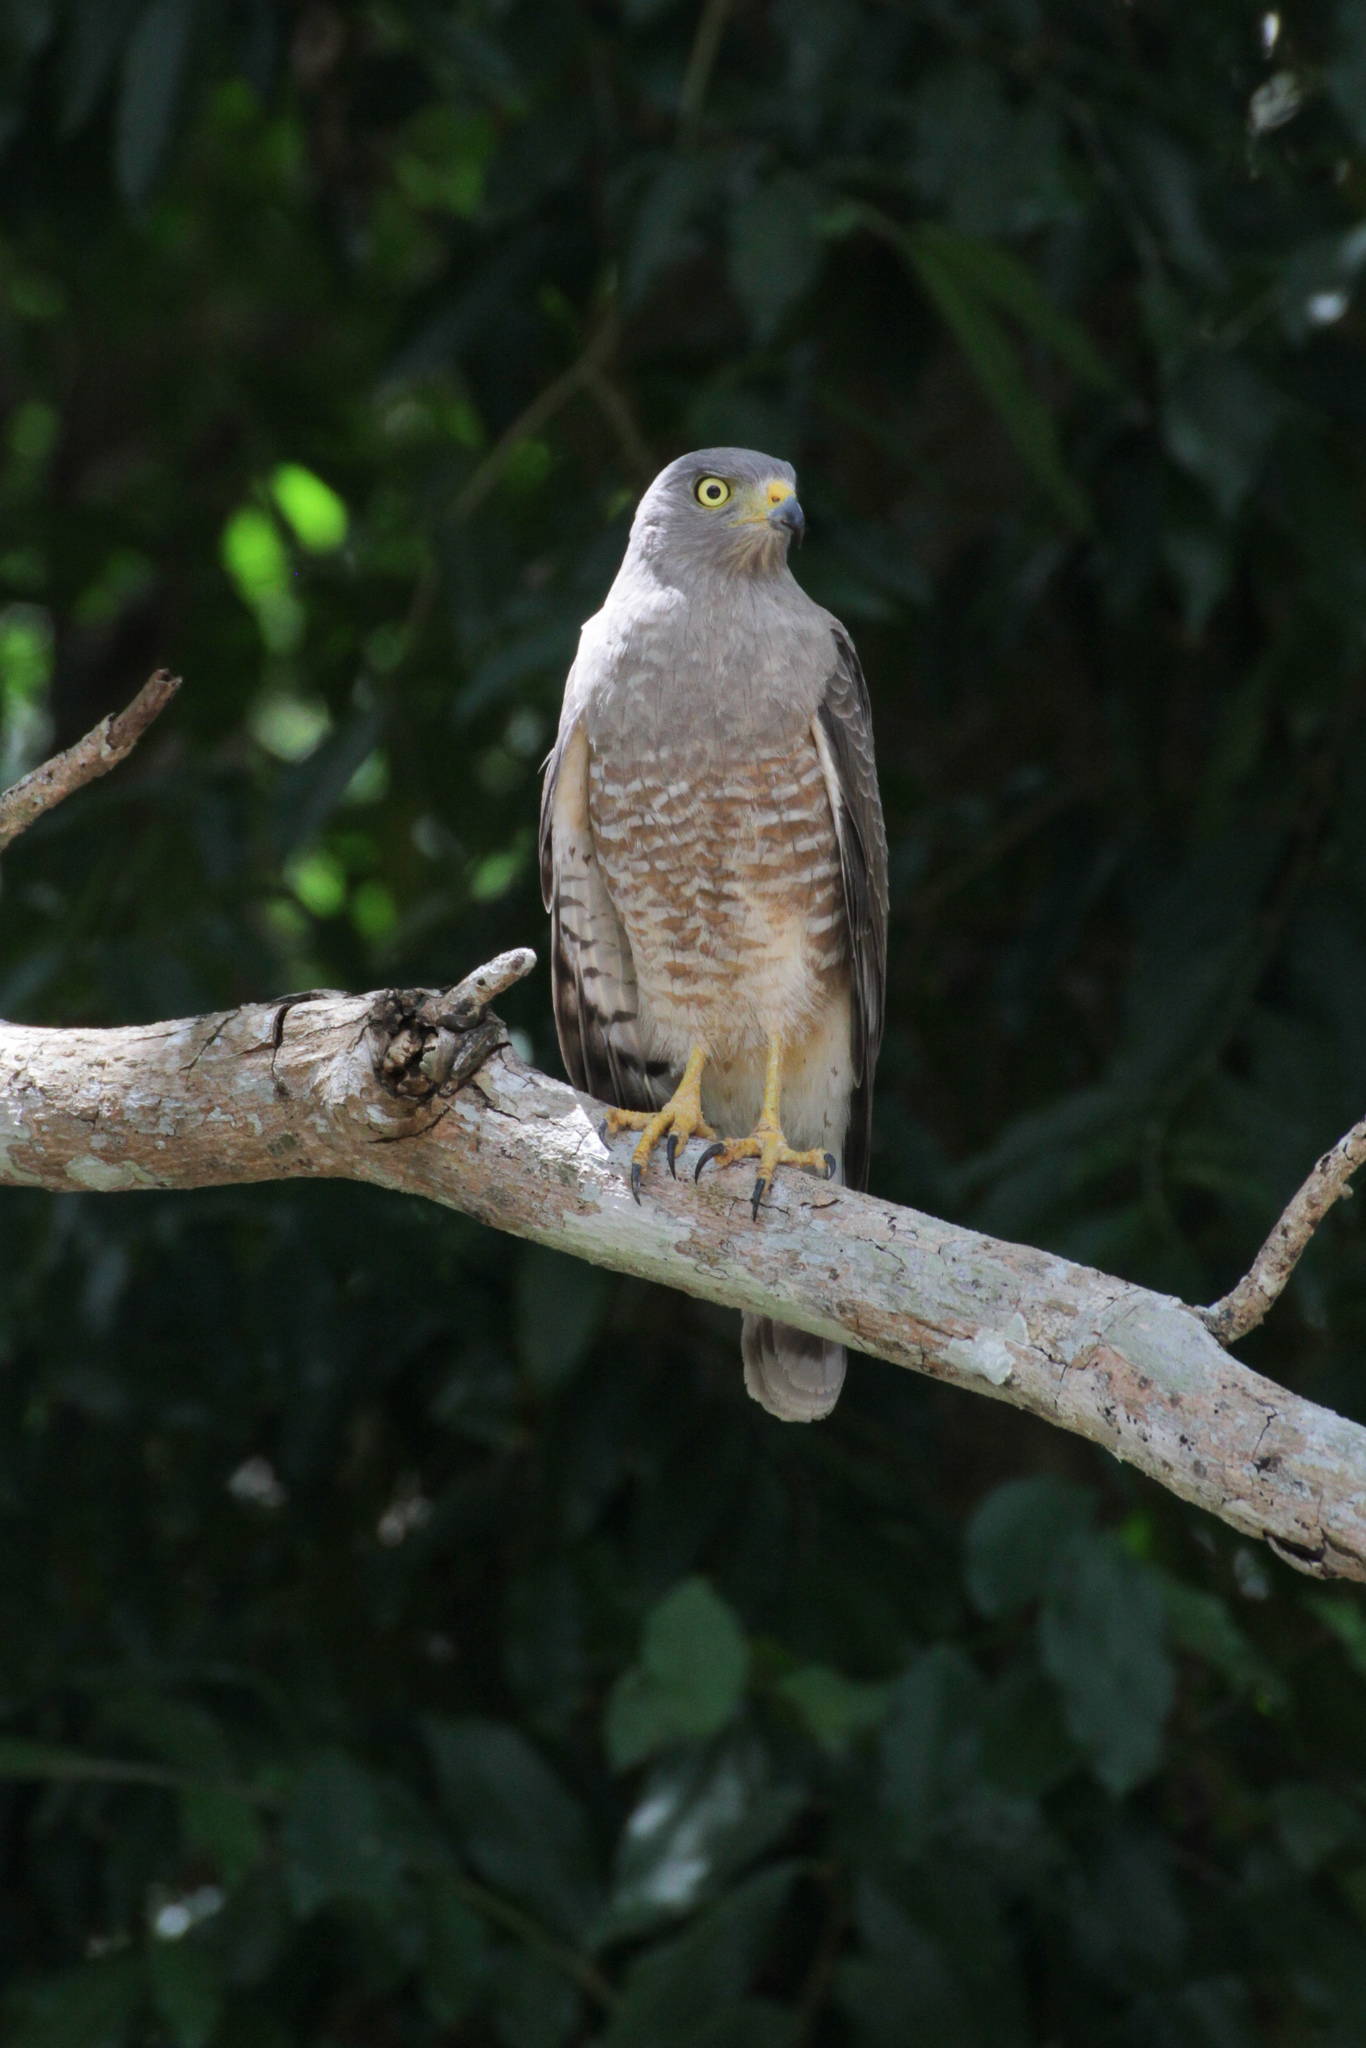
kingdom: Animalia
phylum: Chordata
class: Aves
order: Accipitriformes
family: Accipitridae
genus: Rupornis
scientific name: Rupornis magnirostris
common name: Roadside hawk
